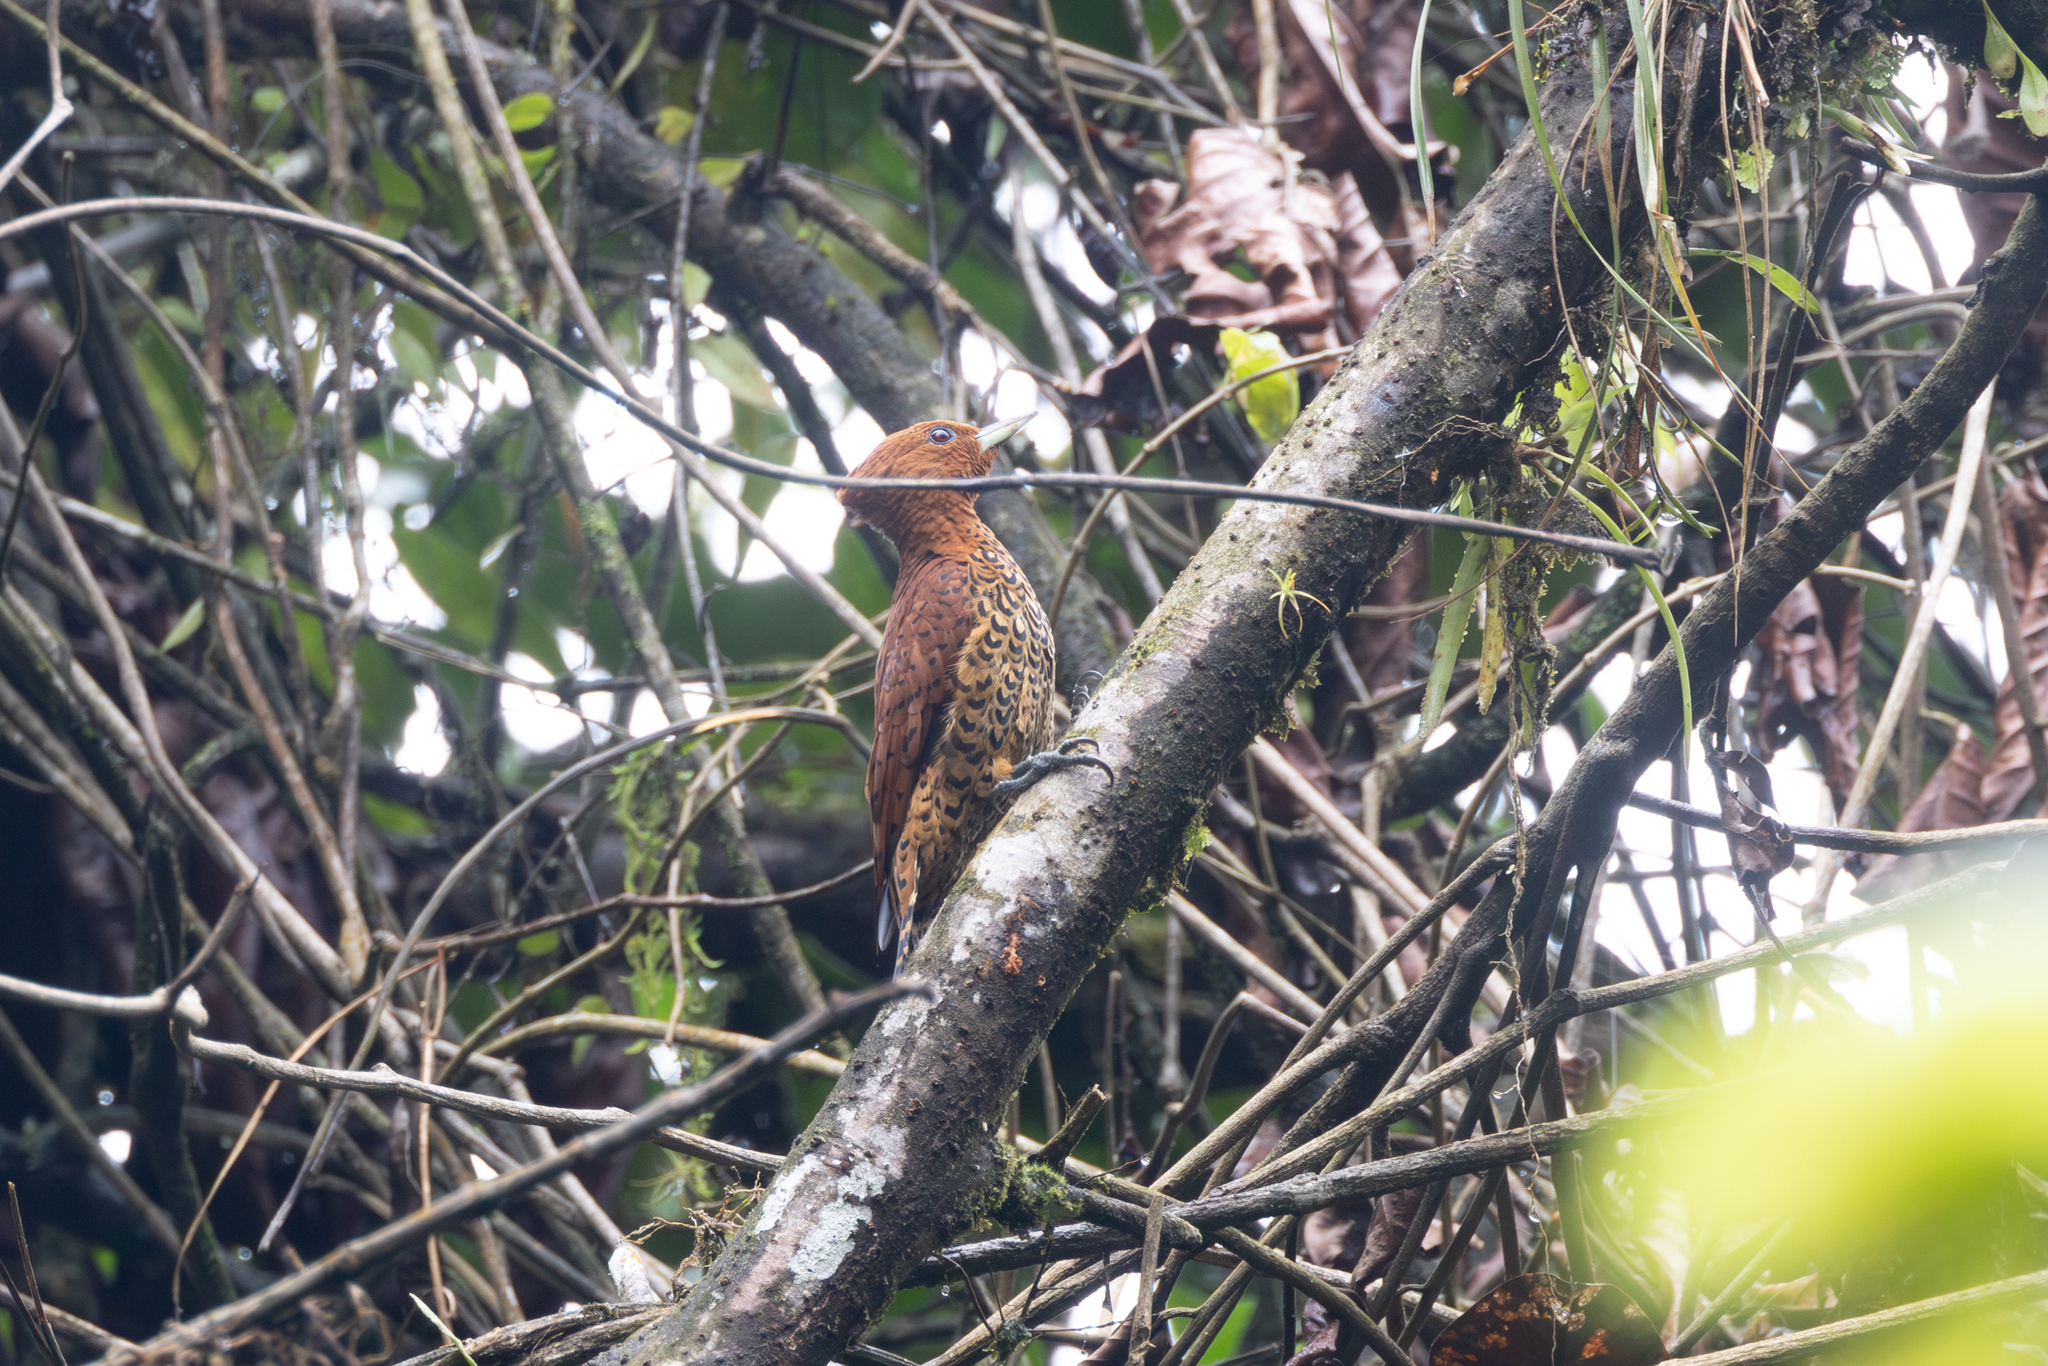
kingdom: Animalia
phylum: Chordata
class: Aves
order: Piciformes
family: Picidae
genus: Celeus
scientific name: Celeus loricatus
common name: Cinnamon woodpecker
